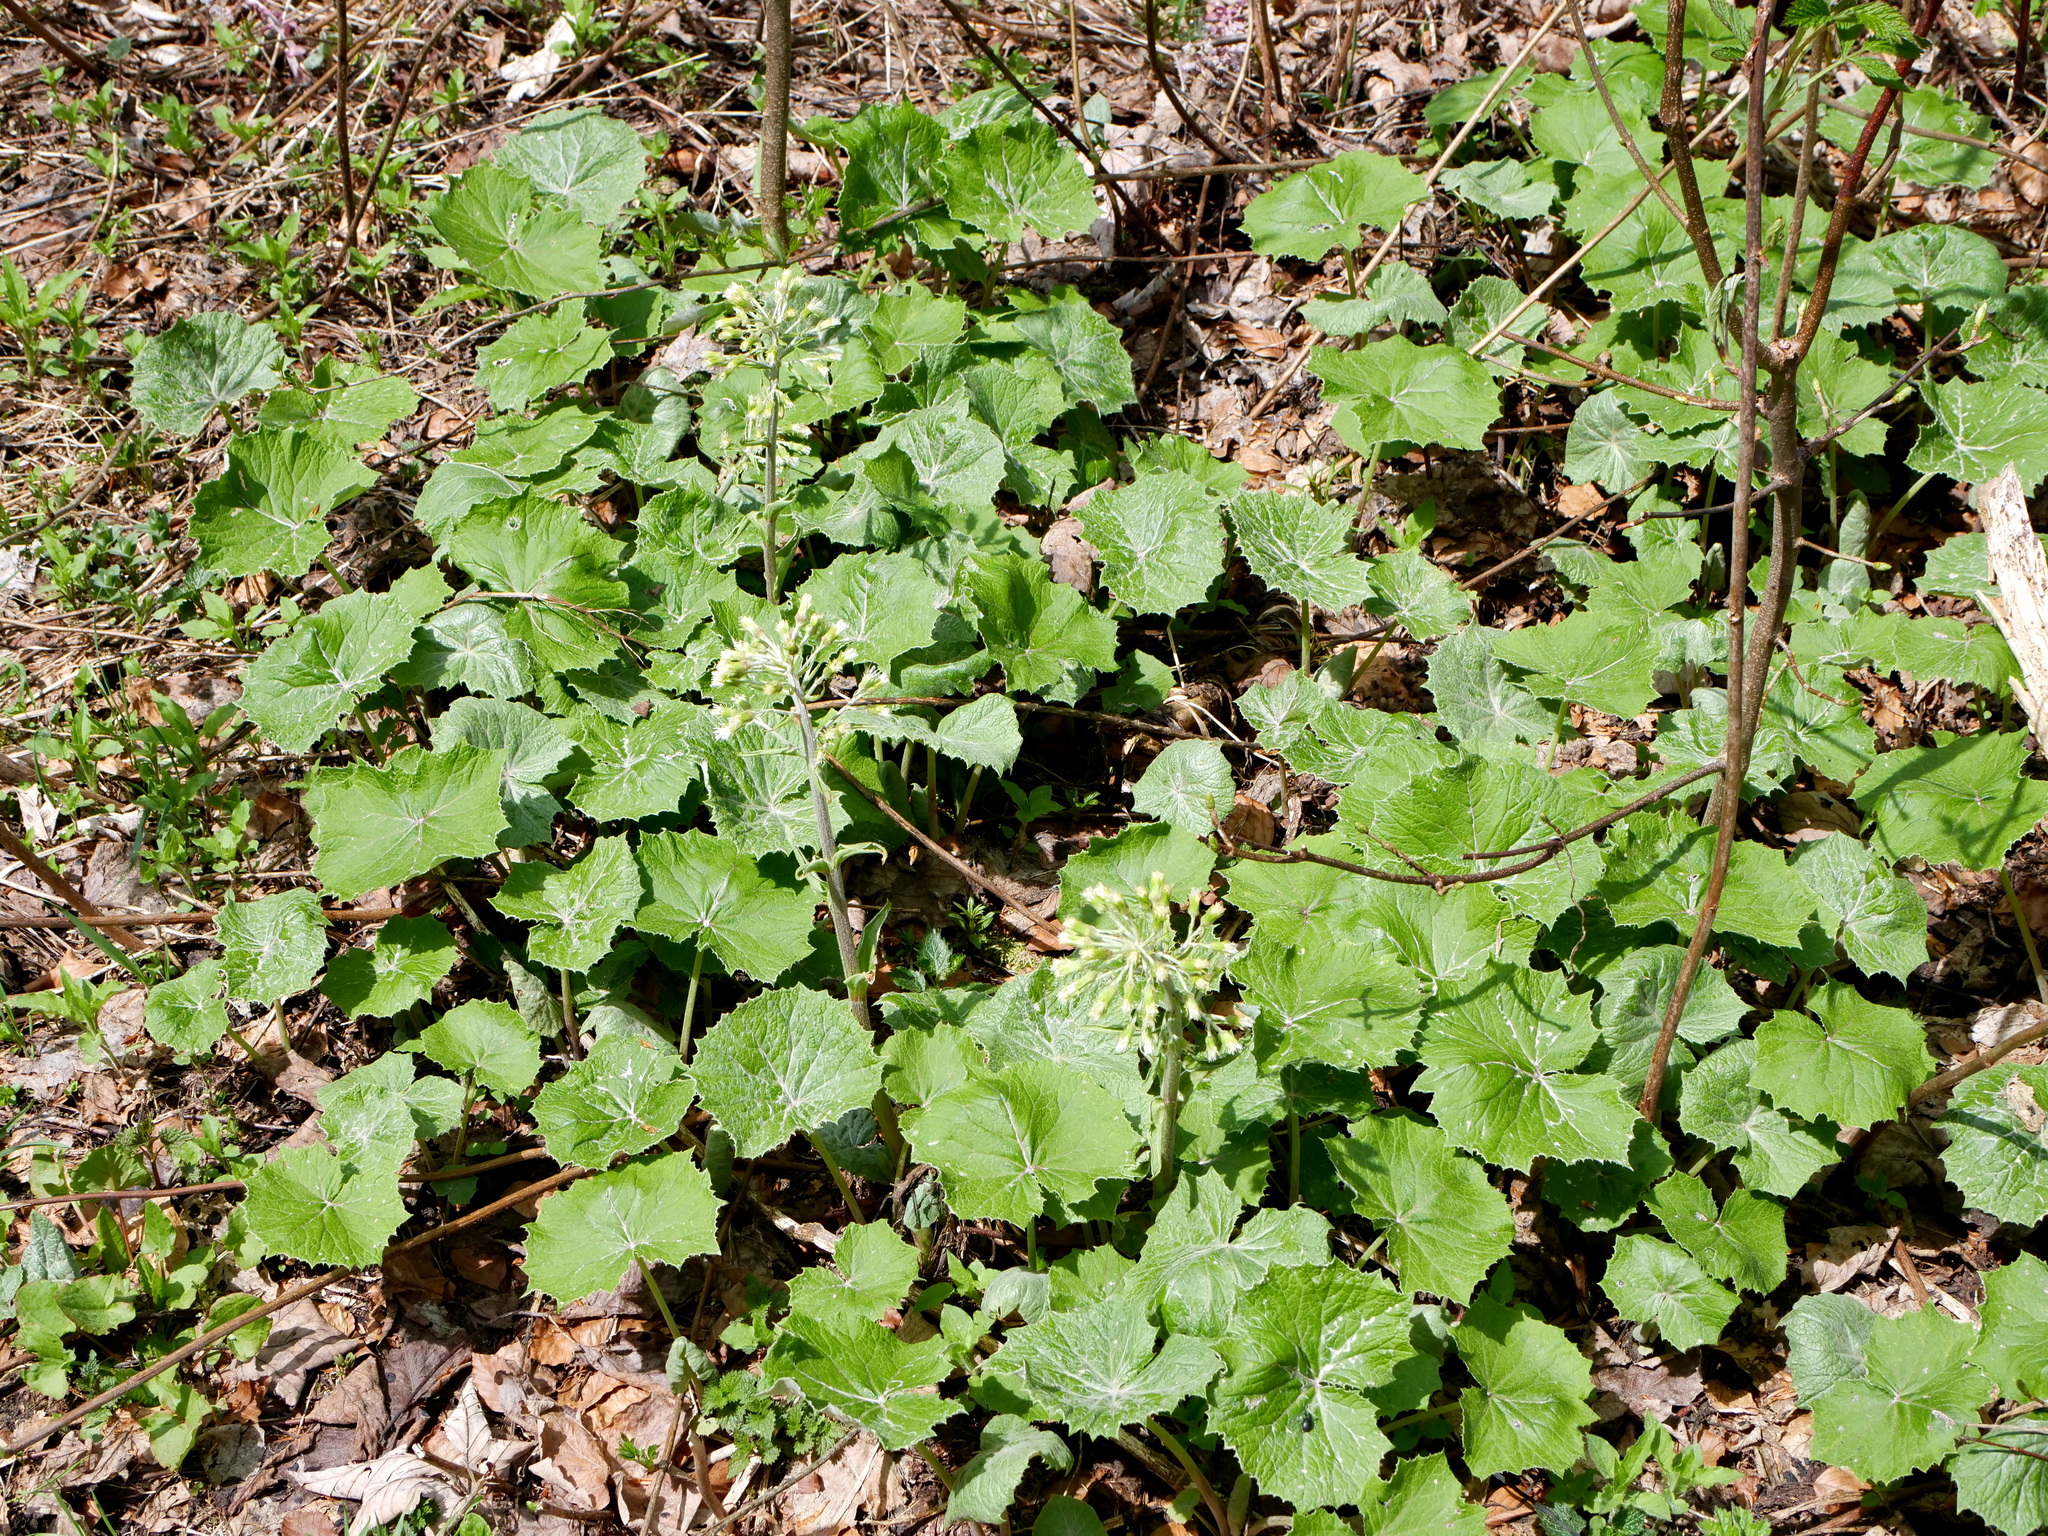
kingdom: Plantae
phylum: Tracheophyta
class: Magnoliopsida
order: Asterales
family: Asteraceae
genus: Petasites
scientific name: Petasites albus
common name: White butterbur
